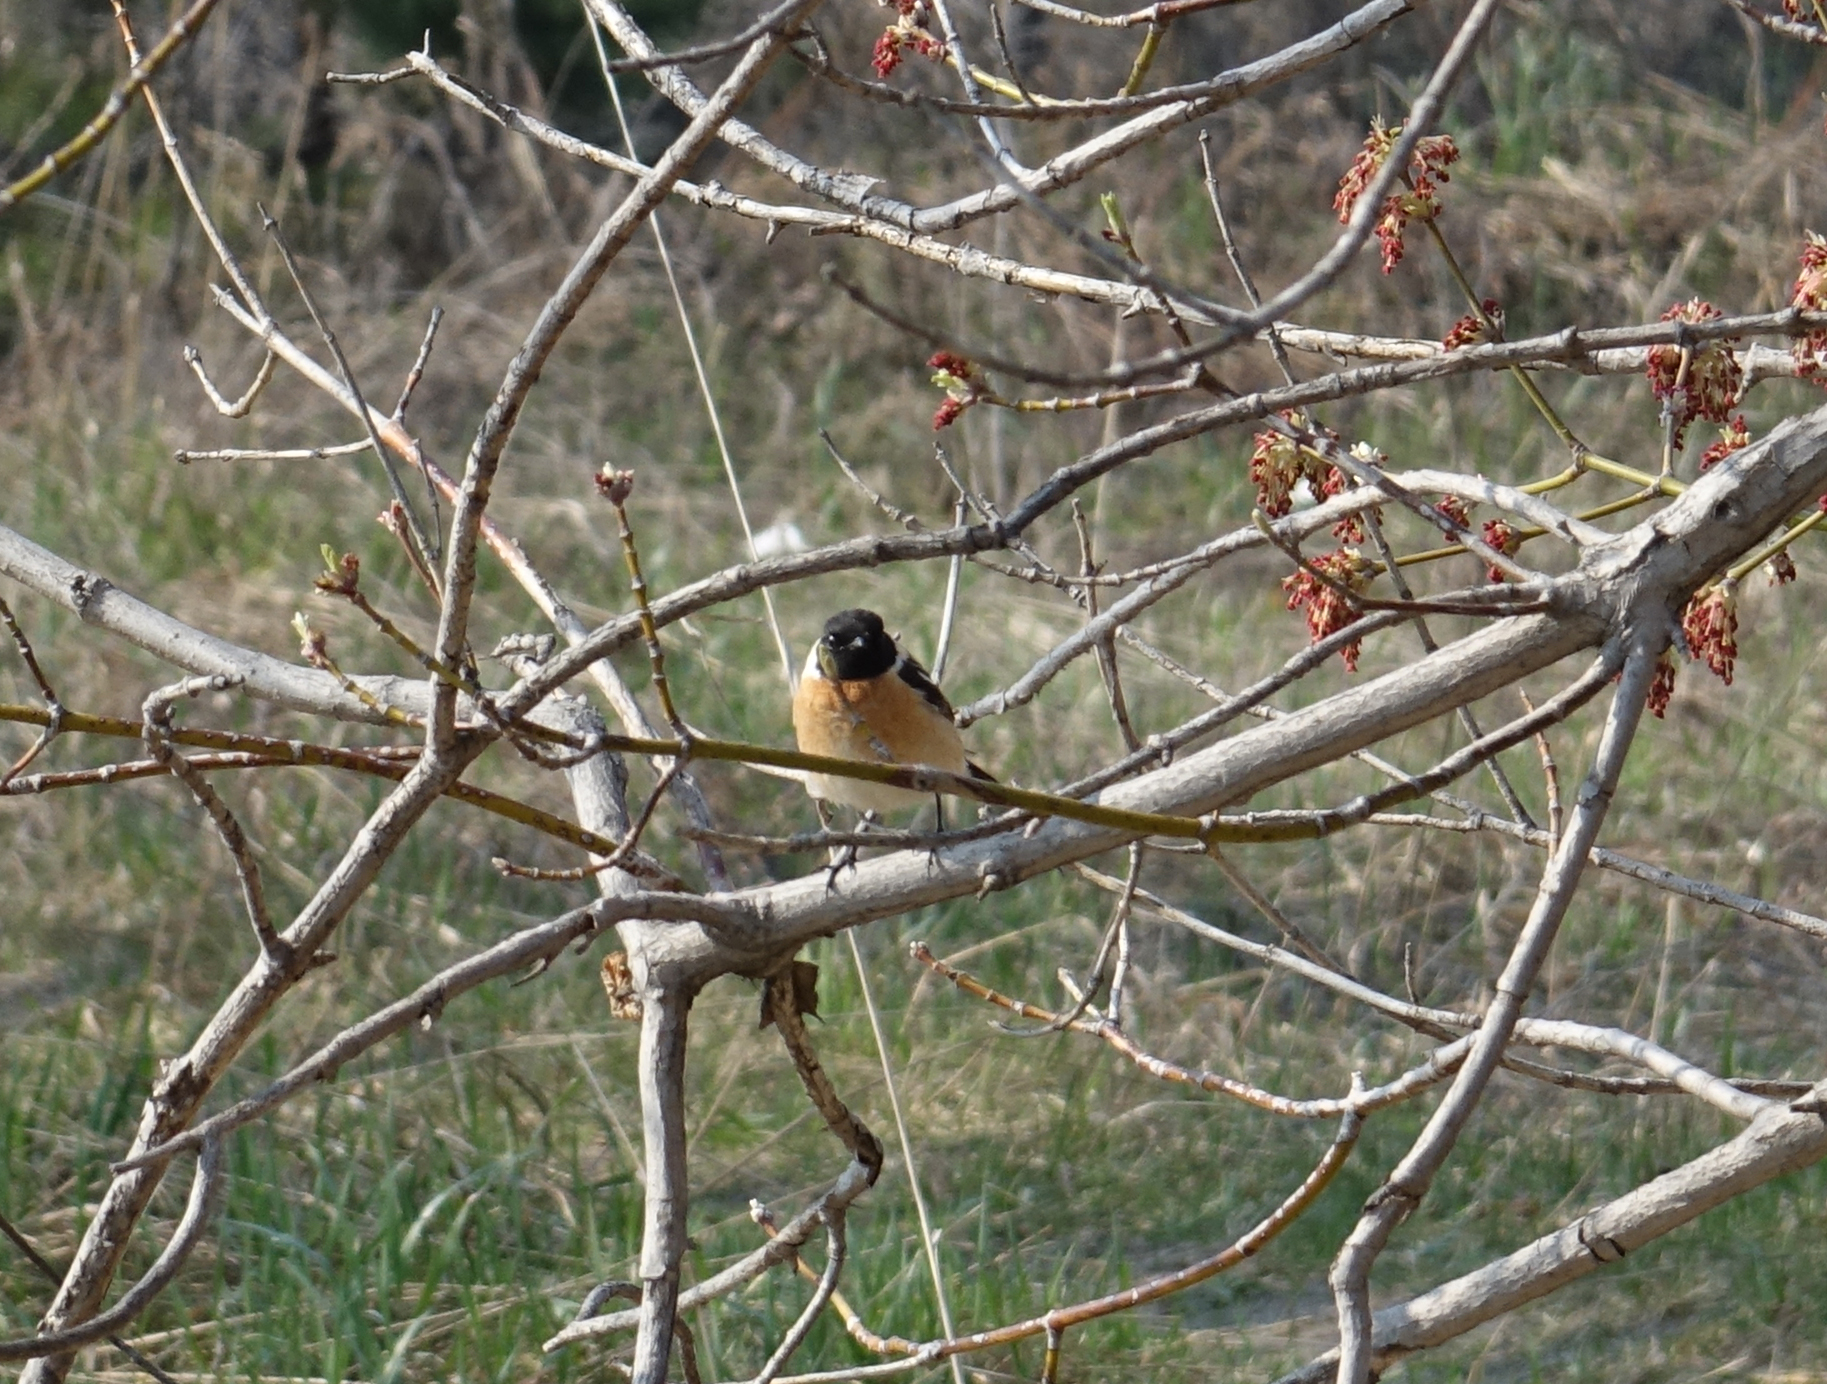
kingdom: Animalia
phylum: Chordata
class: Aves
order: Passeriformes
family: Muscicapidae
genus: Saxicola
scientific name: Saxicola maurus
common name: Siberian stonechat
